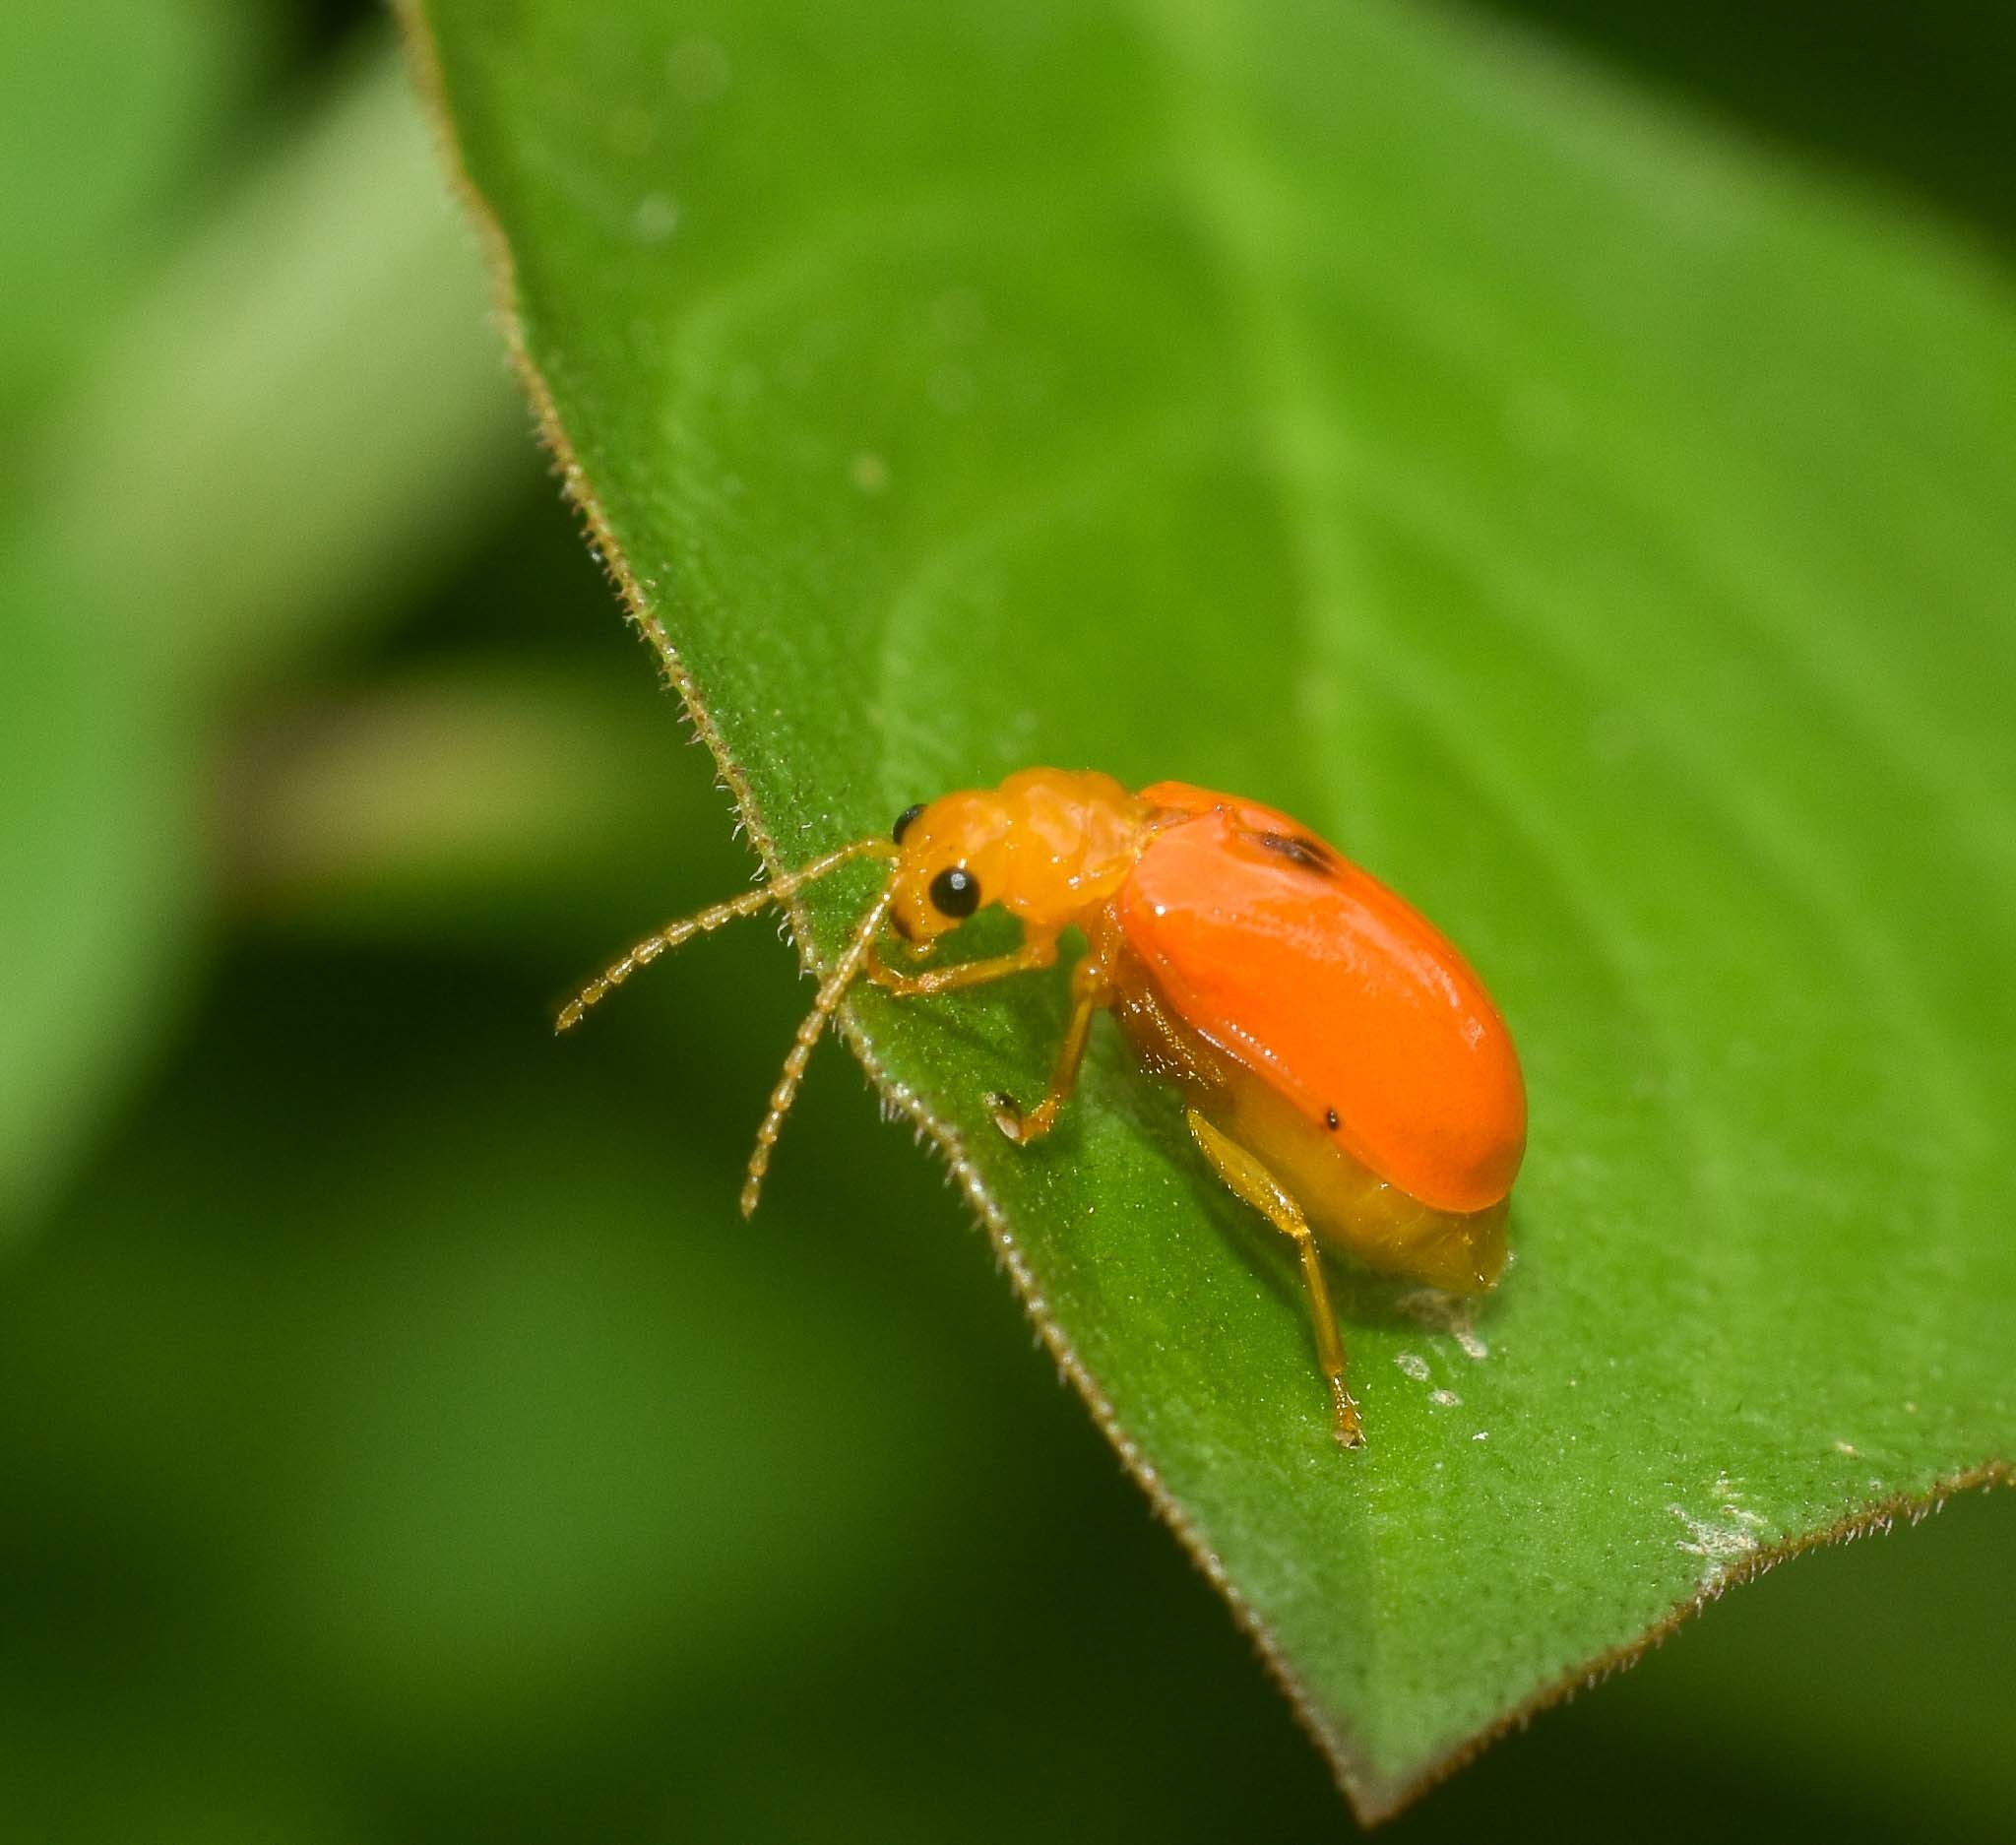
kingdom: Animalia
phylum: Arthropoda
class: Insecta
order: Coleoptera
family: Chrysomelidae
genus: Pseudocophora
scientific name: Pseudocophora flaveola
